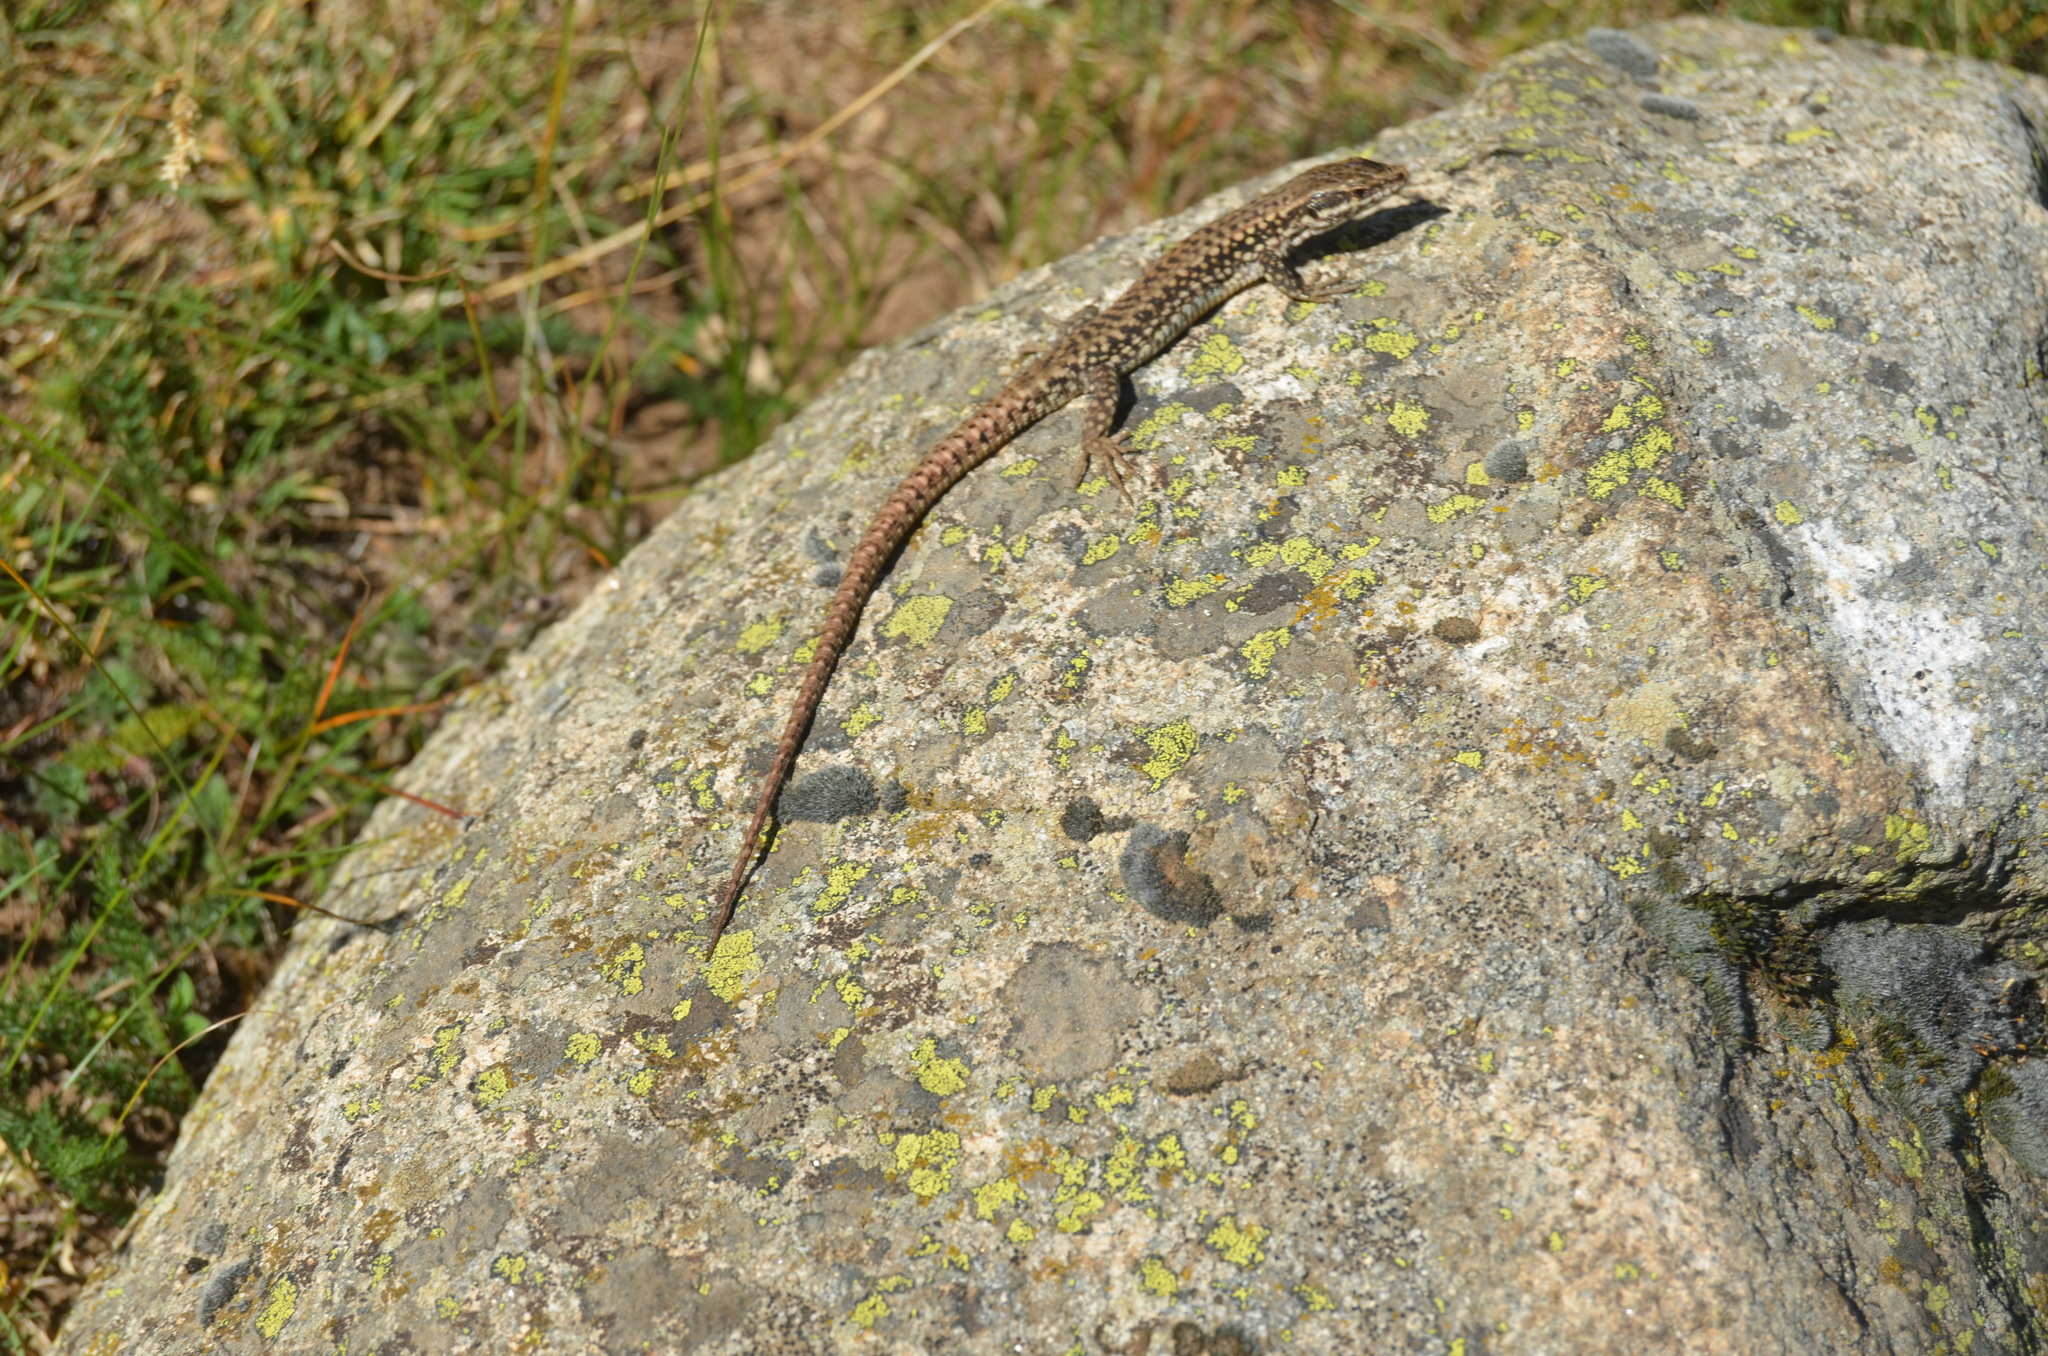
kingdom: Animalia
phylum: Chordata
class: Squamata
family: Lacertidae
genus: Podarcis
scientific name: Podarcis muralis
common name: Common wall lizard
